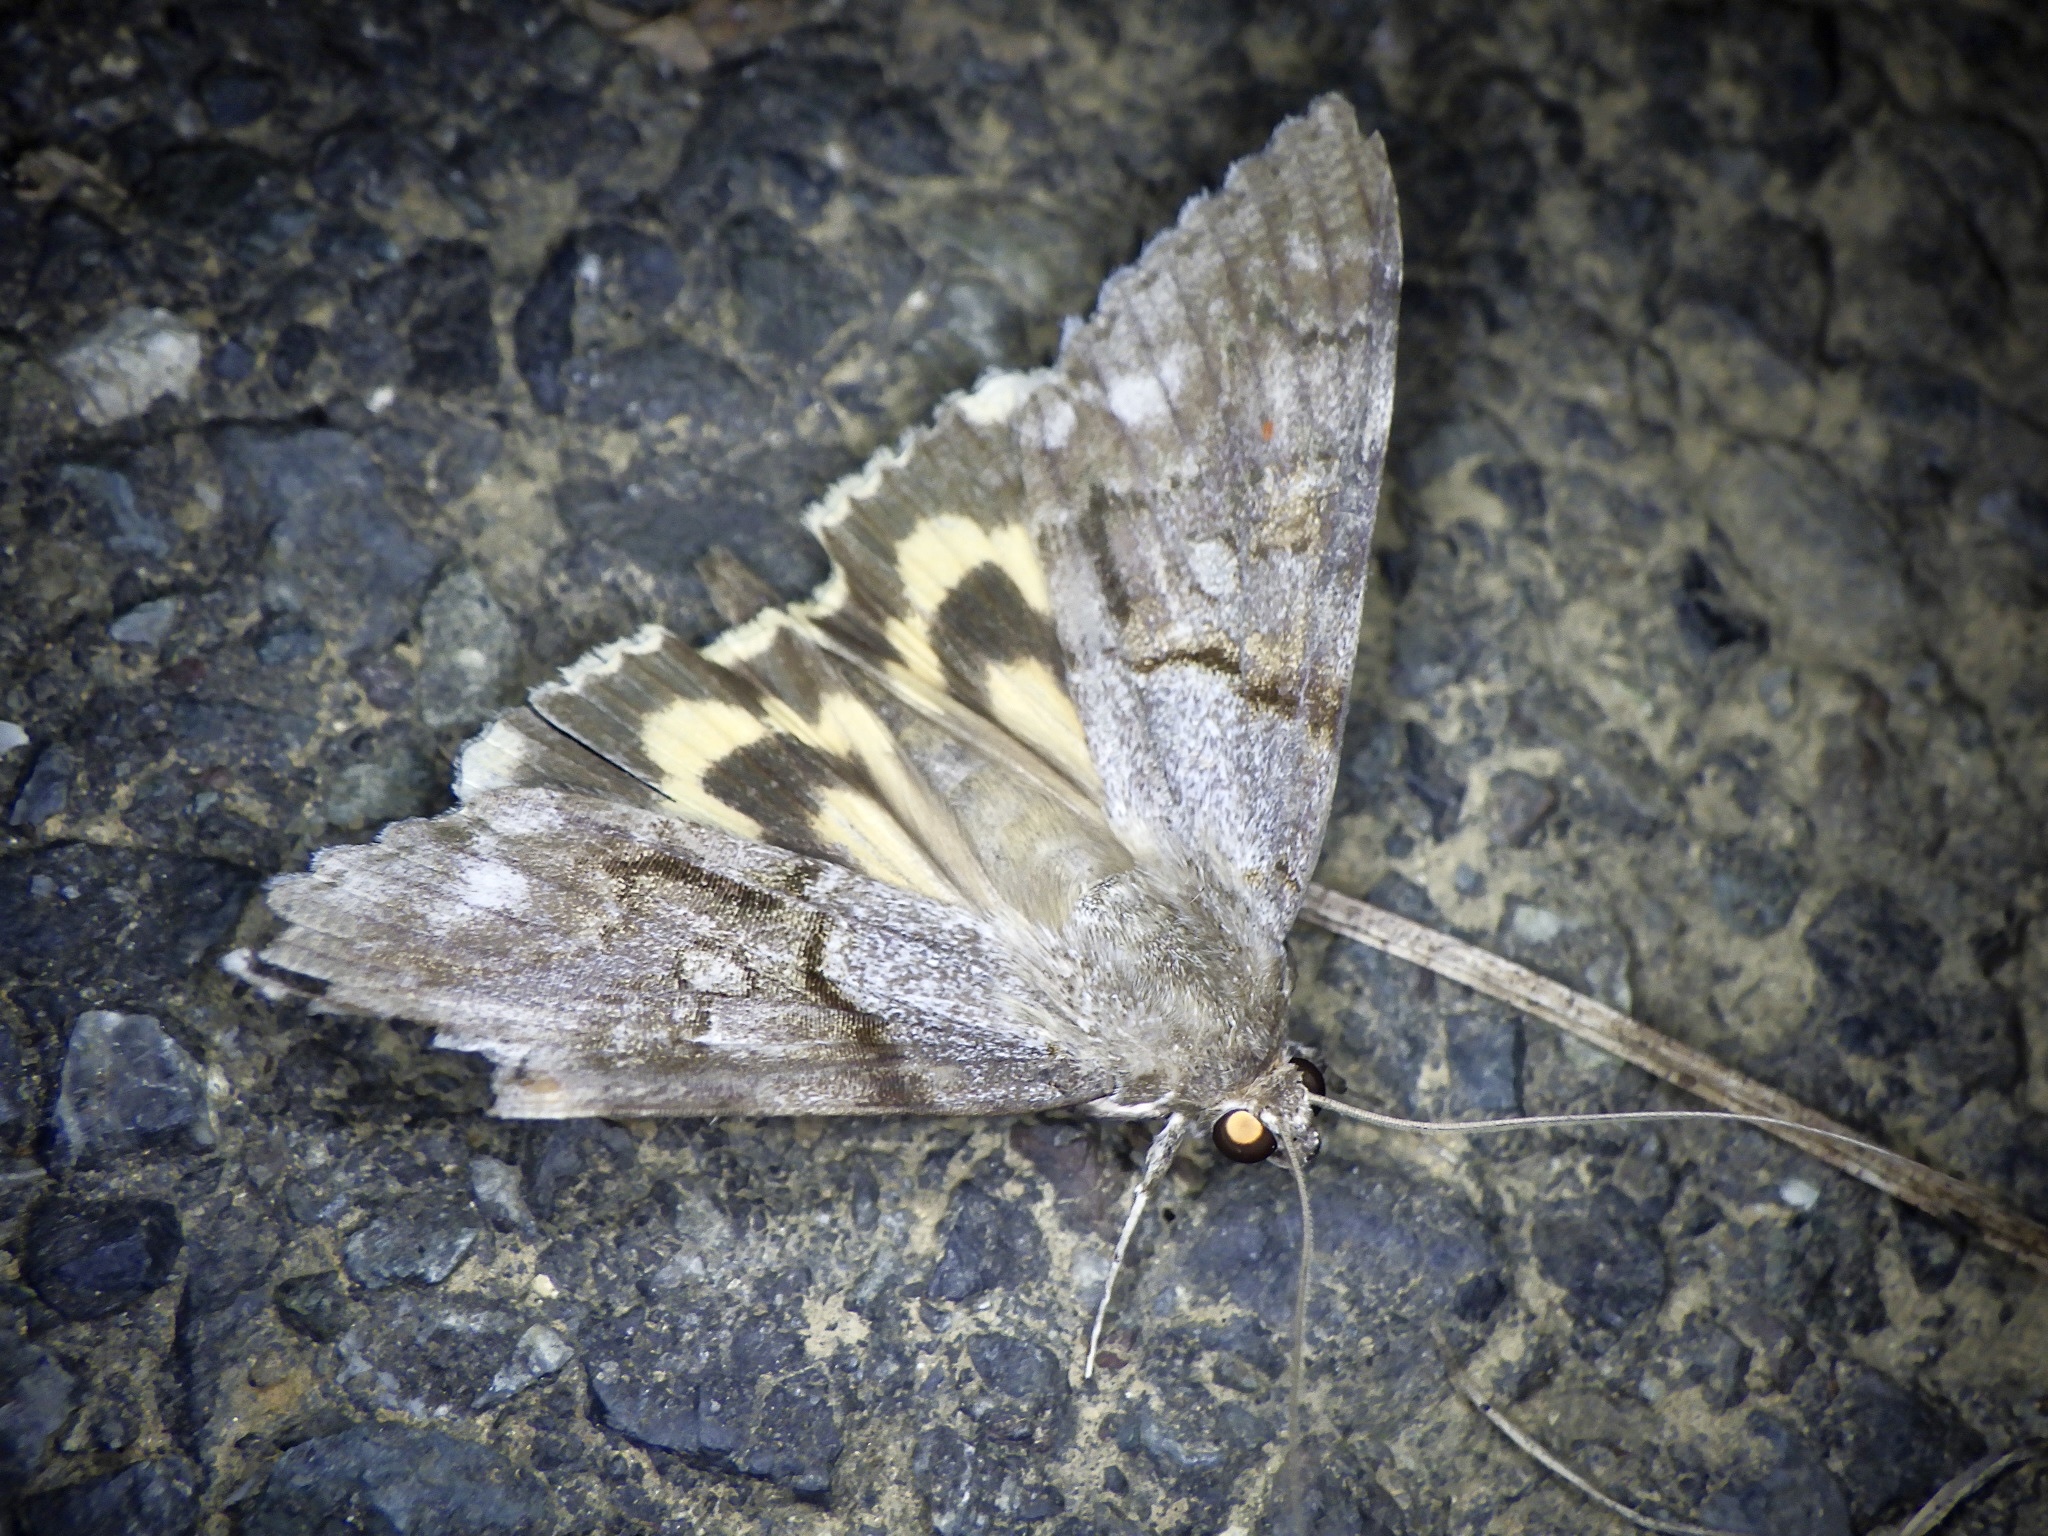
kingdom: Animalia
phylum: Arthropoda
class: Insecta
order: Lepidoptera
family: Erebidae
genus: Catocala
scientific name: Catocala jonasii
